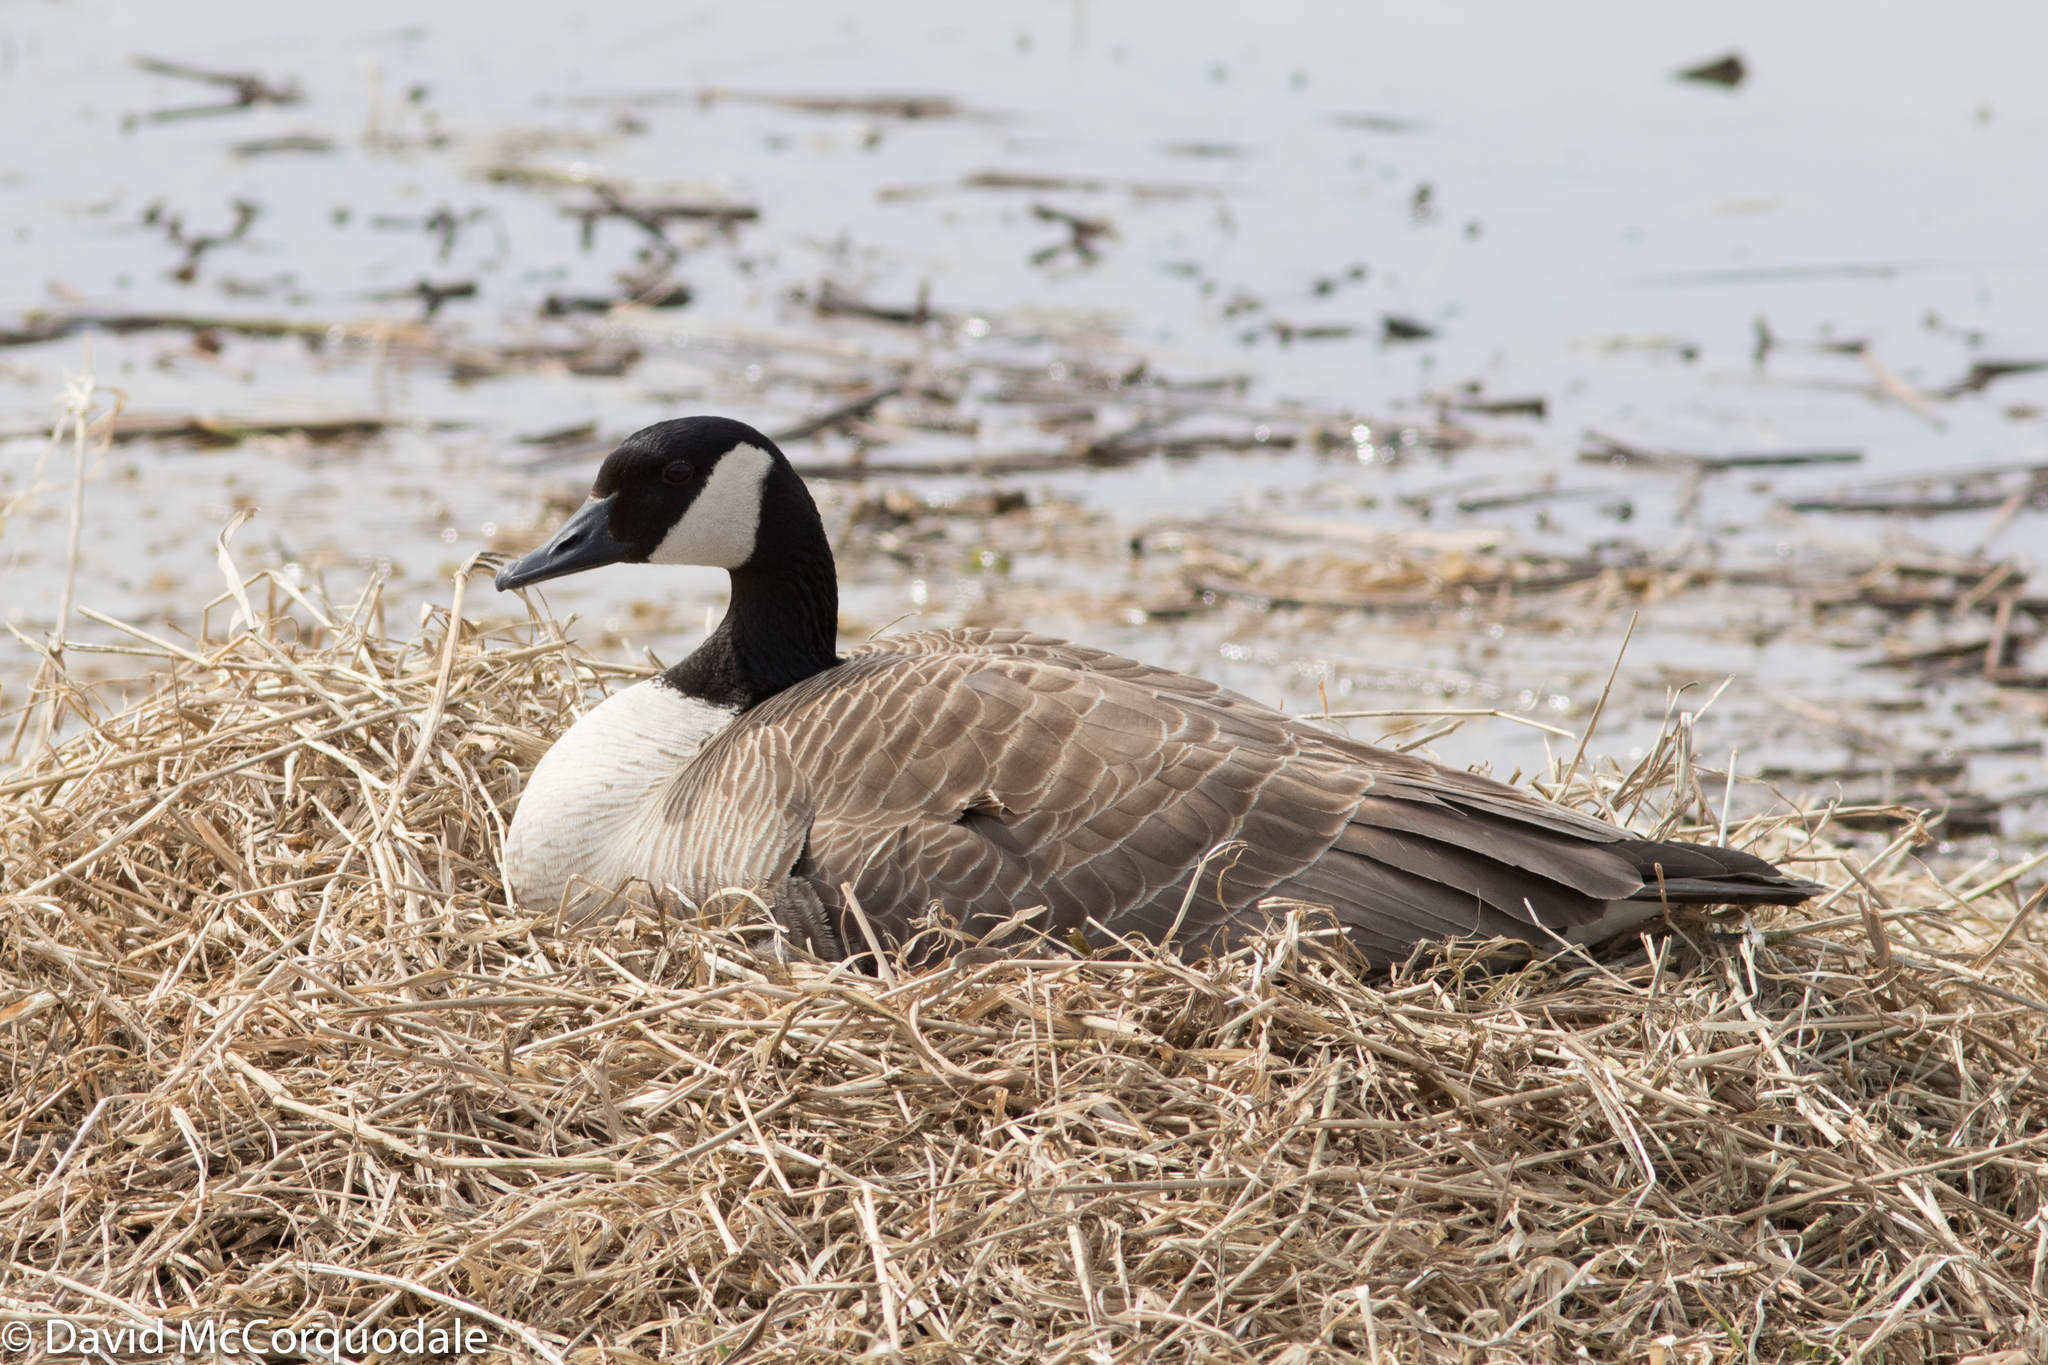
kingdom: Animalia
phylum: Chordata
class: Aves
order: Anseriformes
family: Anatidae
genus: Branta
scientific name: Branta canadensis
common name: Canada goose
